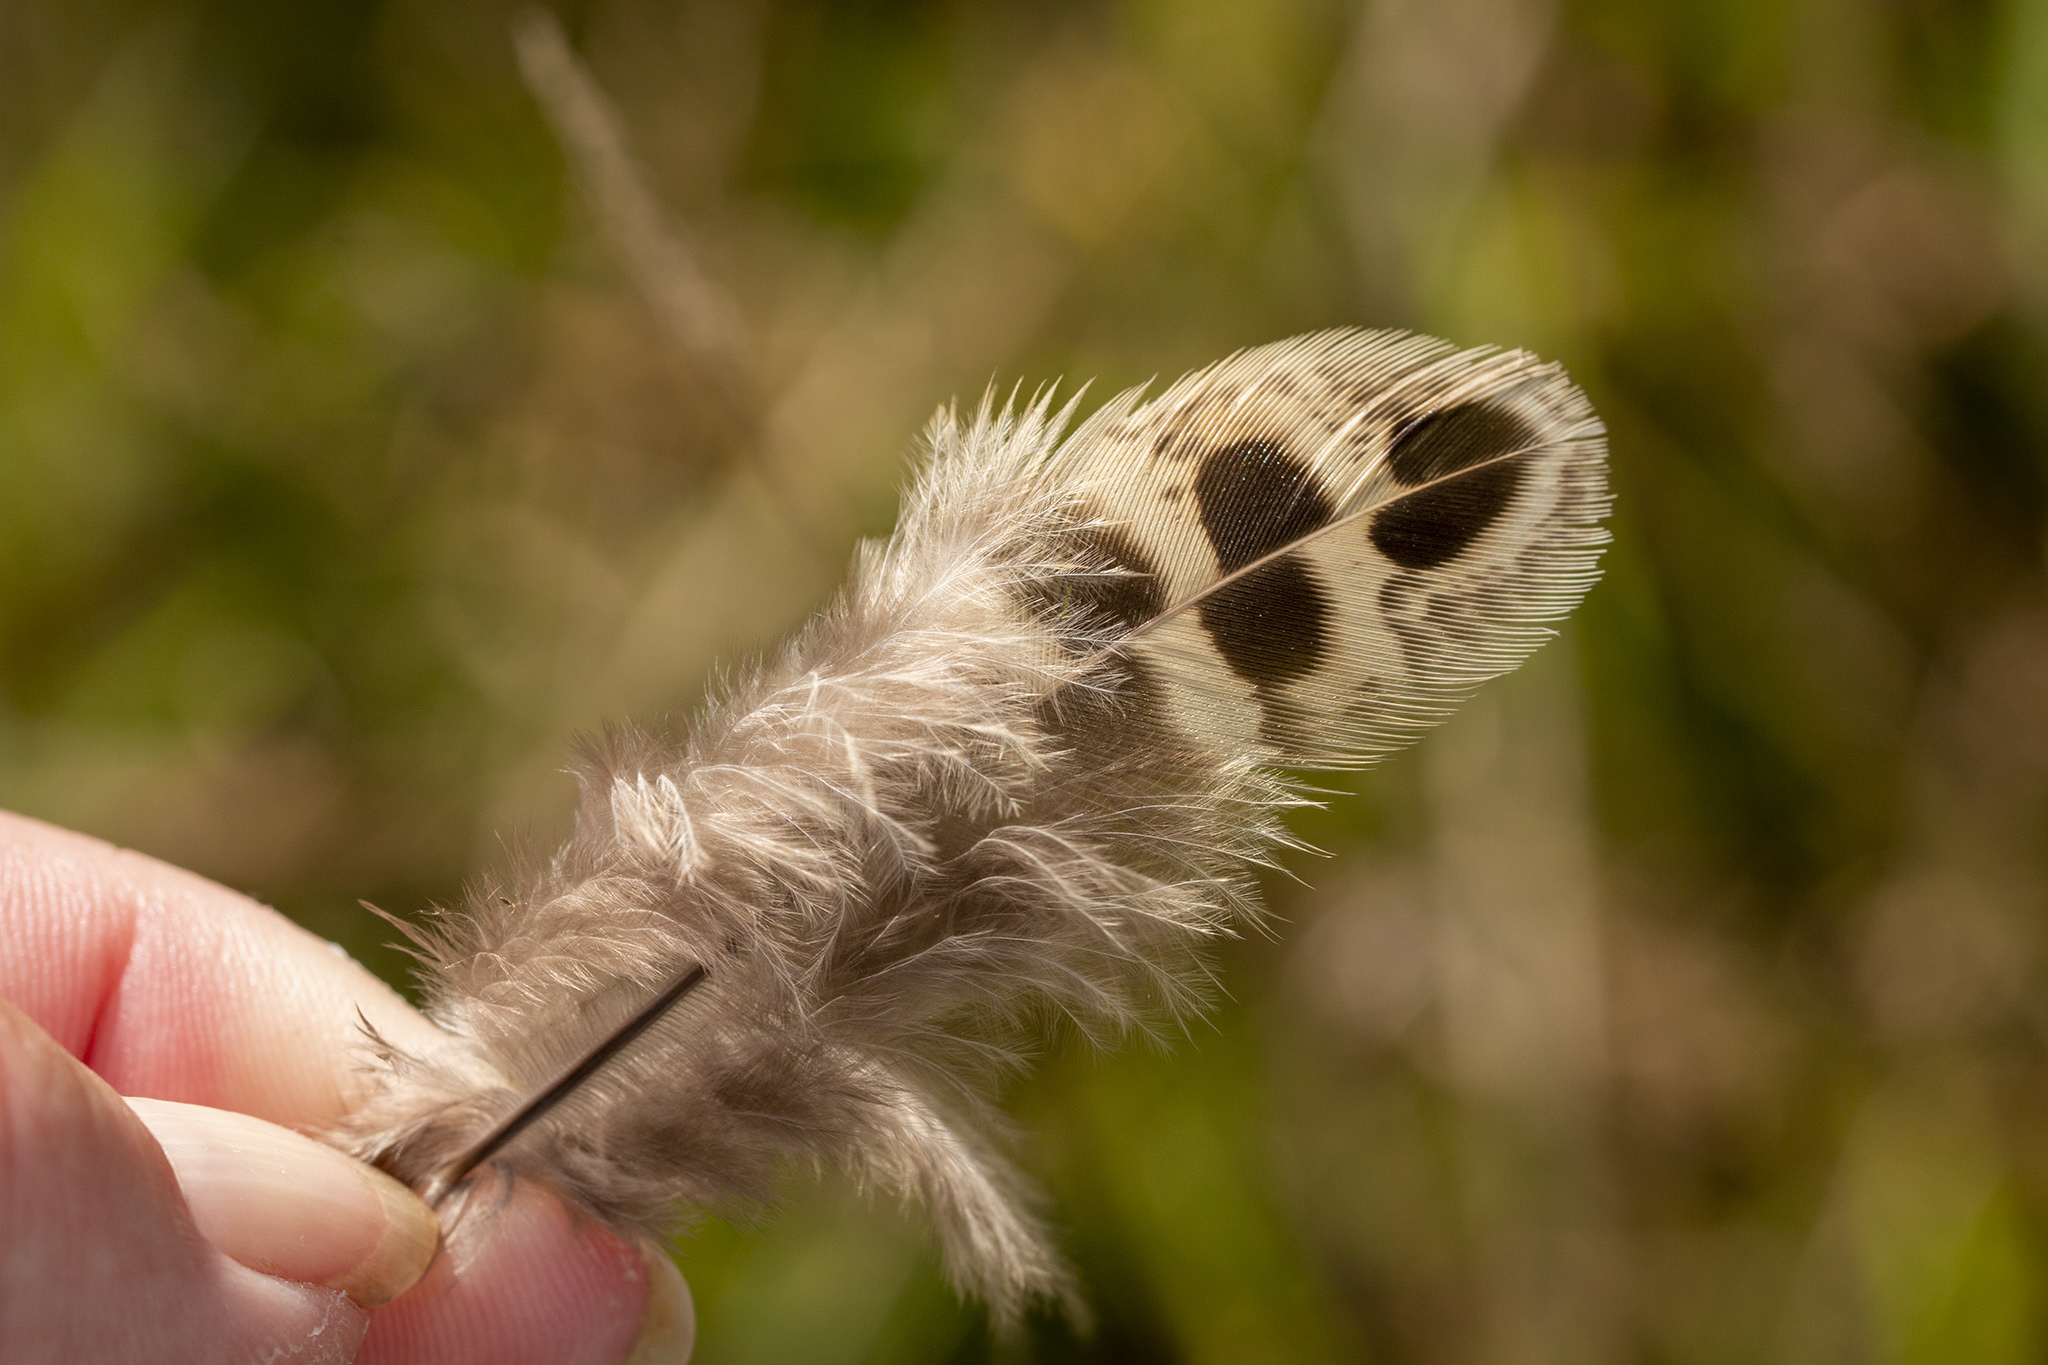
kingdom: Animalia
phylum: Chordata
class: Aves
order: Galliformes
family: Phasianidae
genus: Phasianus
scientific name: Phasianus colchicus
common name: Common pheasant
